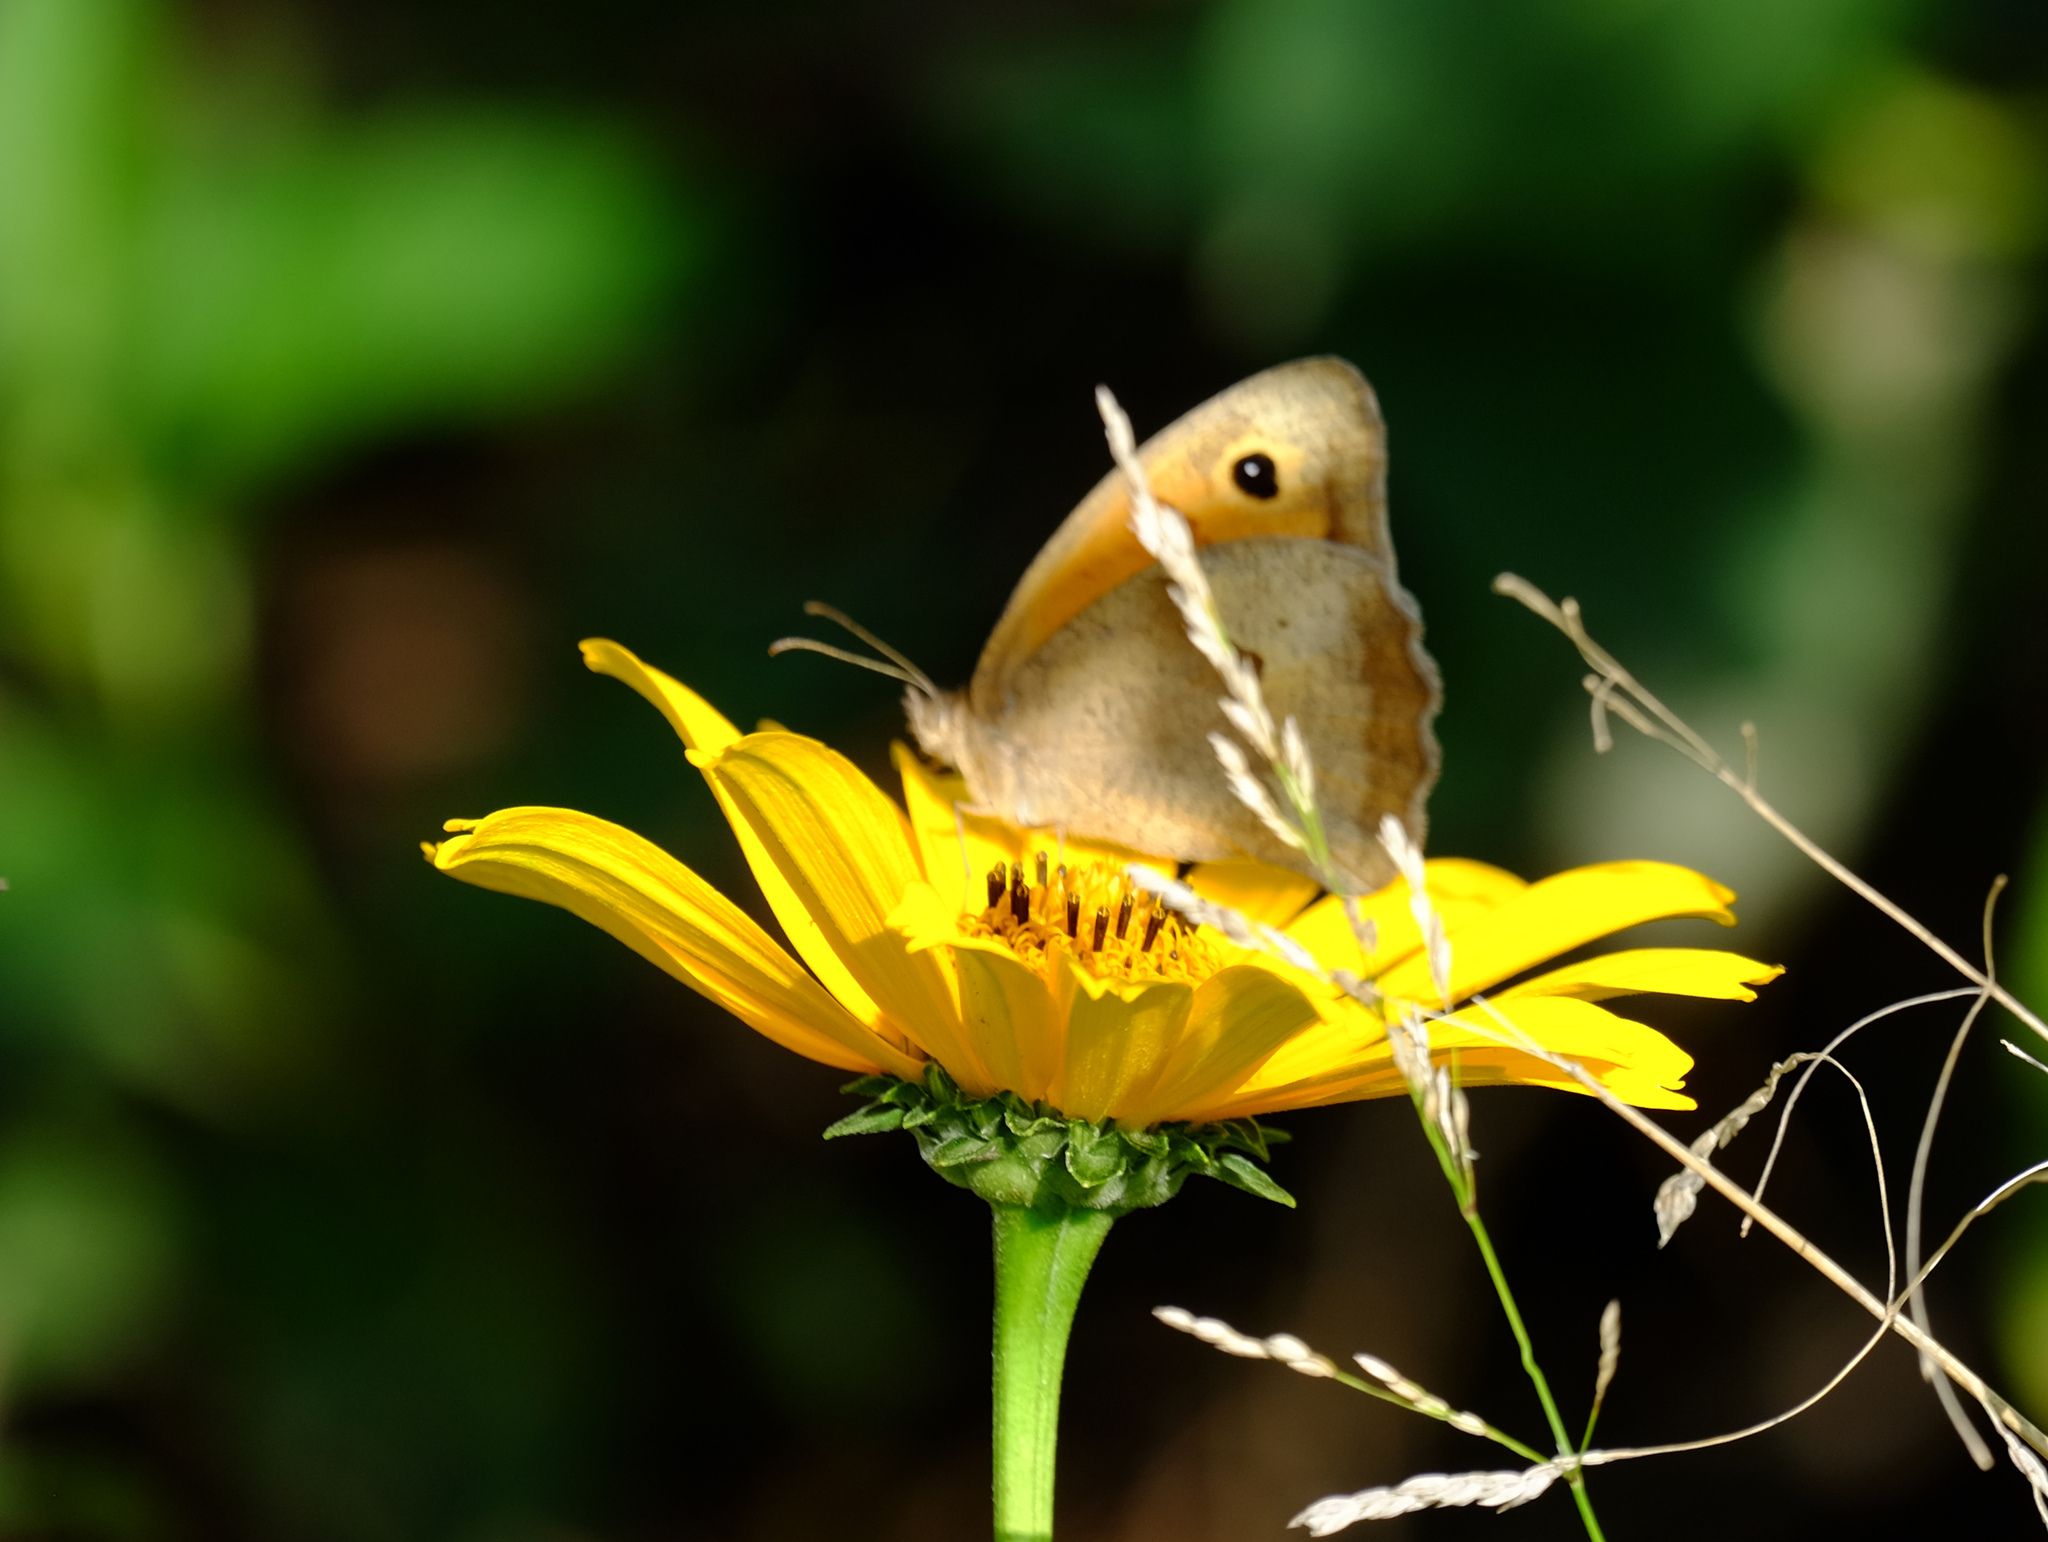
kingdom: Animalia
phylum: Arthropoda
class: Insecta
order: Lepidoptera
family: Nymphalidae
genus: Maniola
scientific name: Maniola jurtina
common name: Meadow brown
